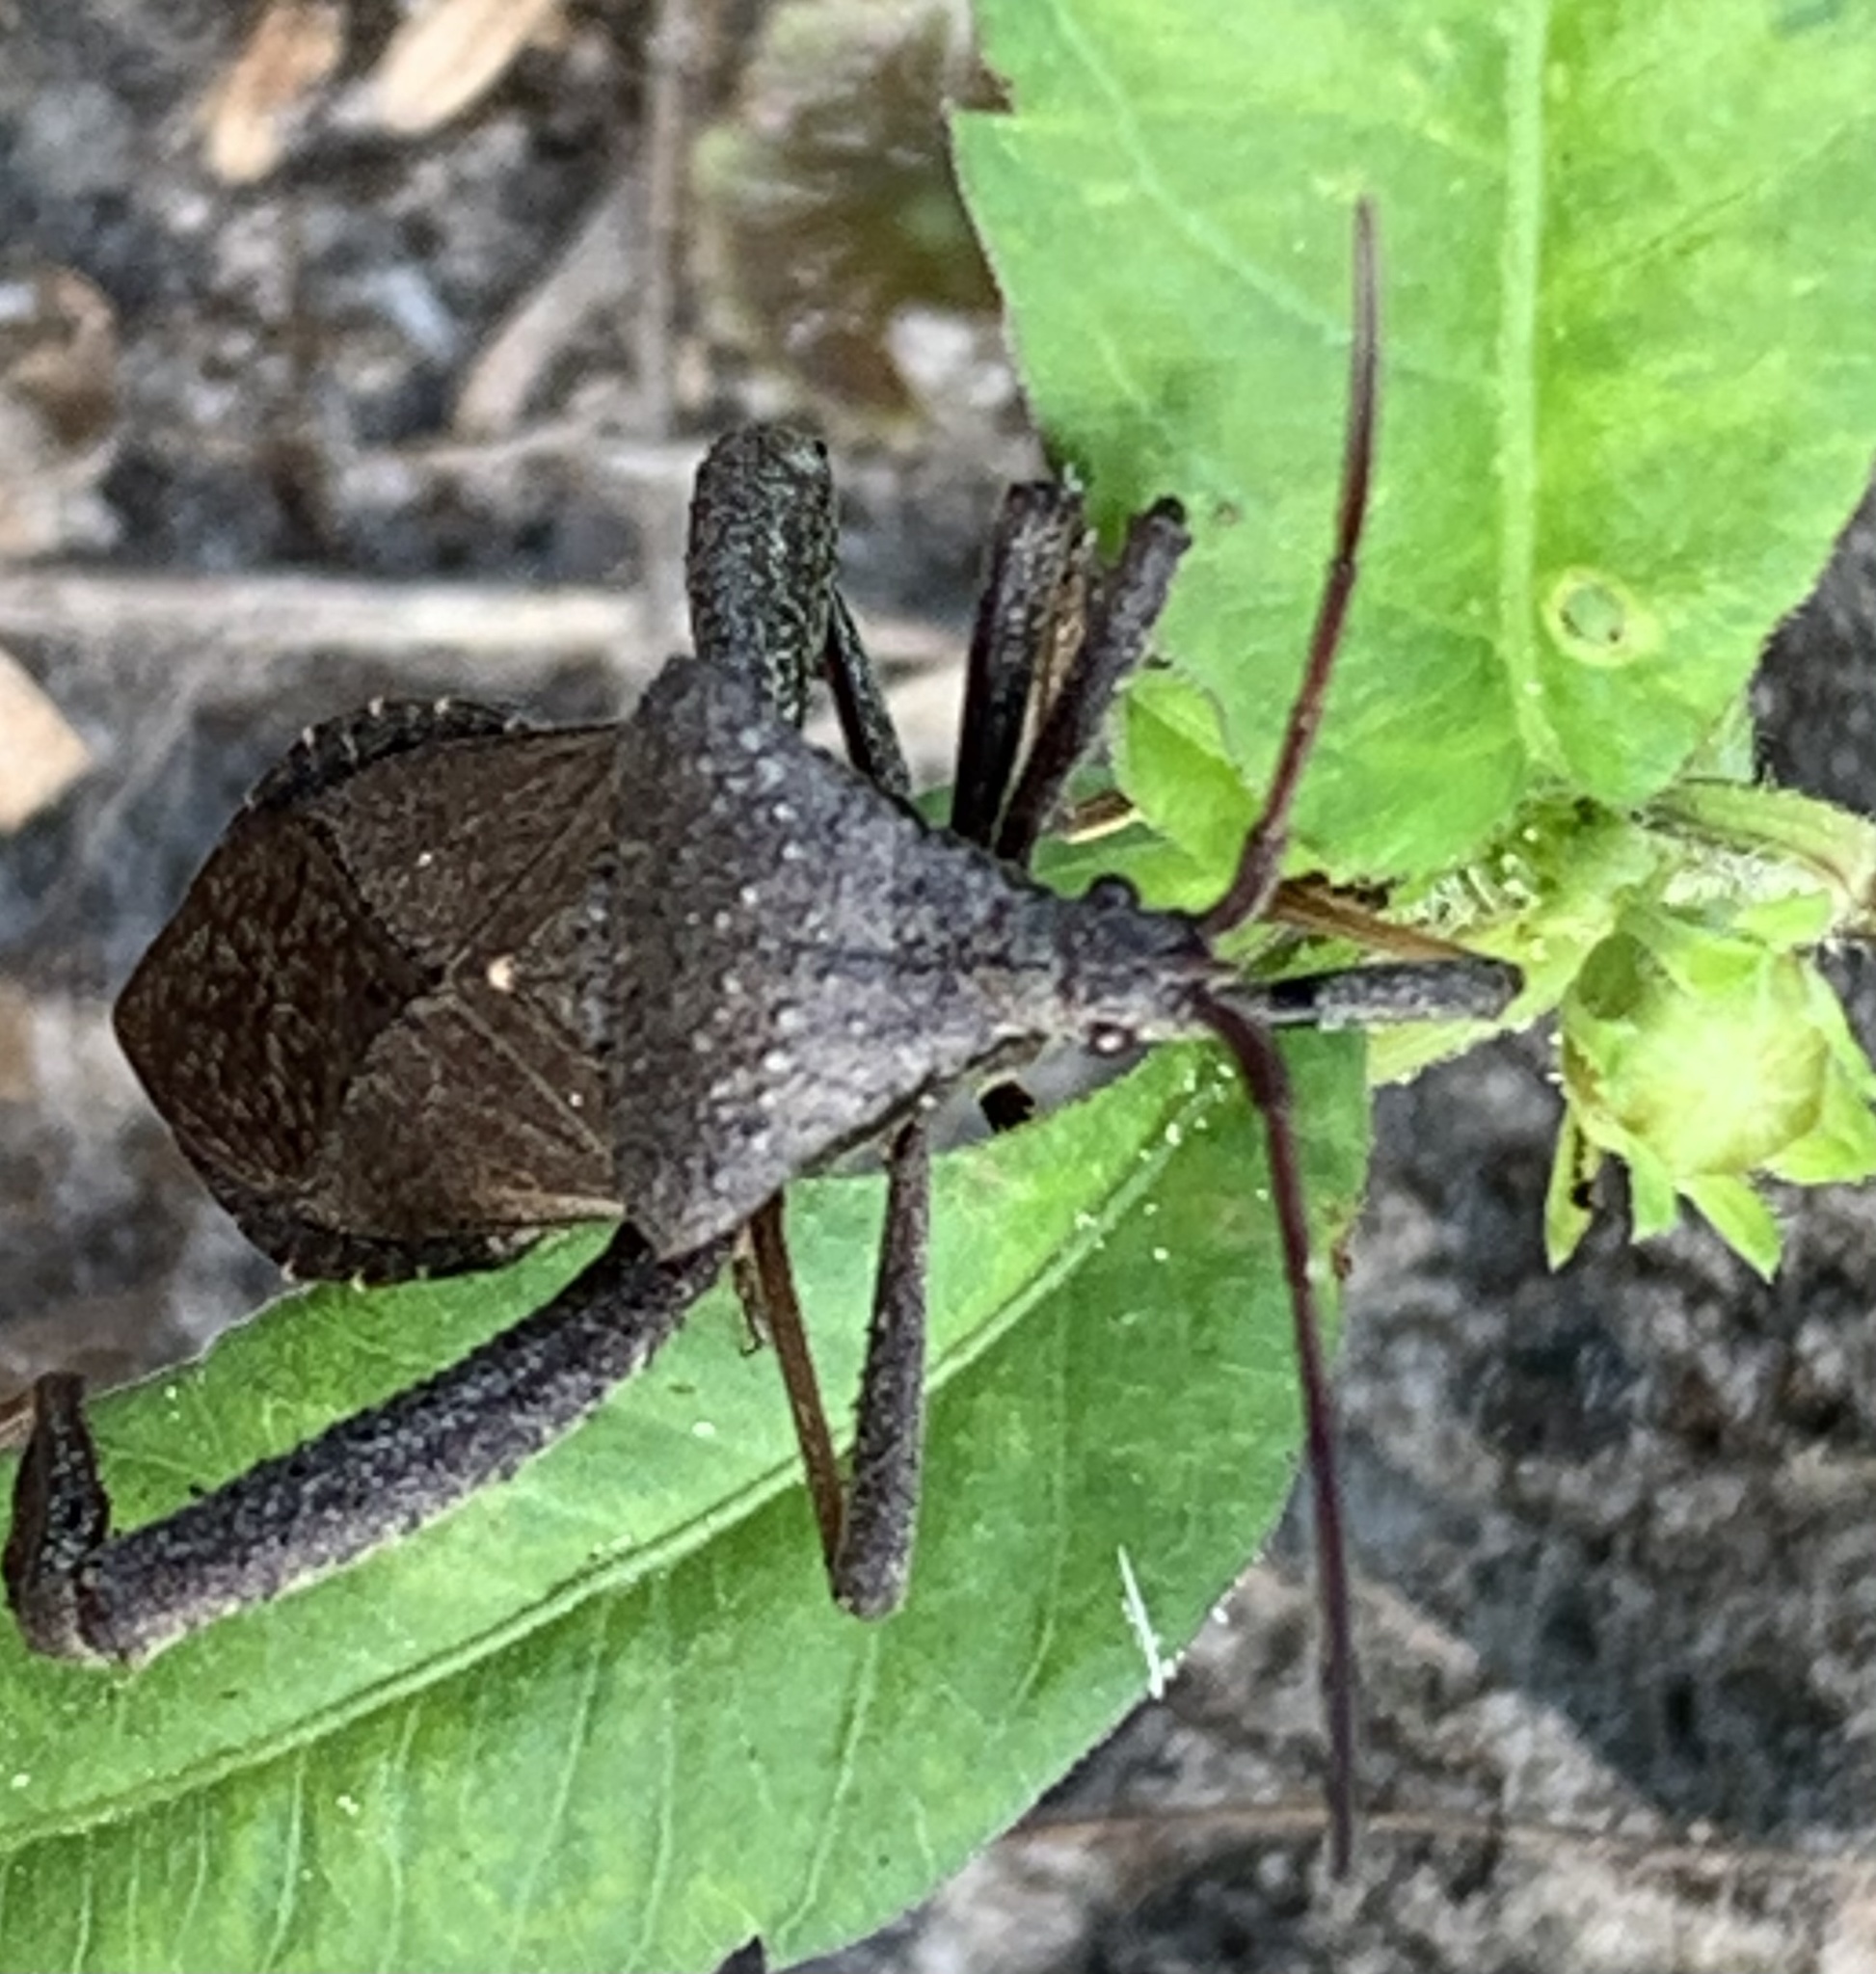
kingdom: Animalia
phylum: Arthropoda
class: Insecta
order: Hemiptera
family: Coreidae
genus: Acanthocephala
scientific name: Acanthocephala femorata
